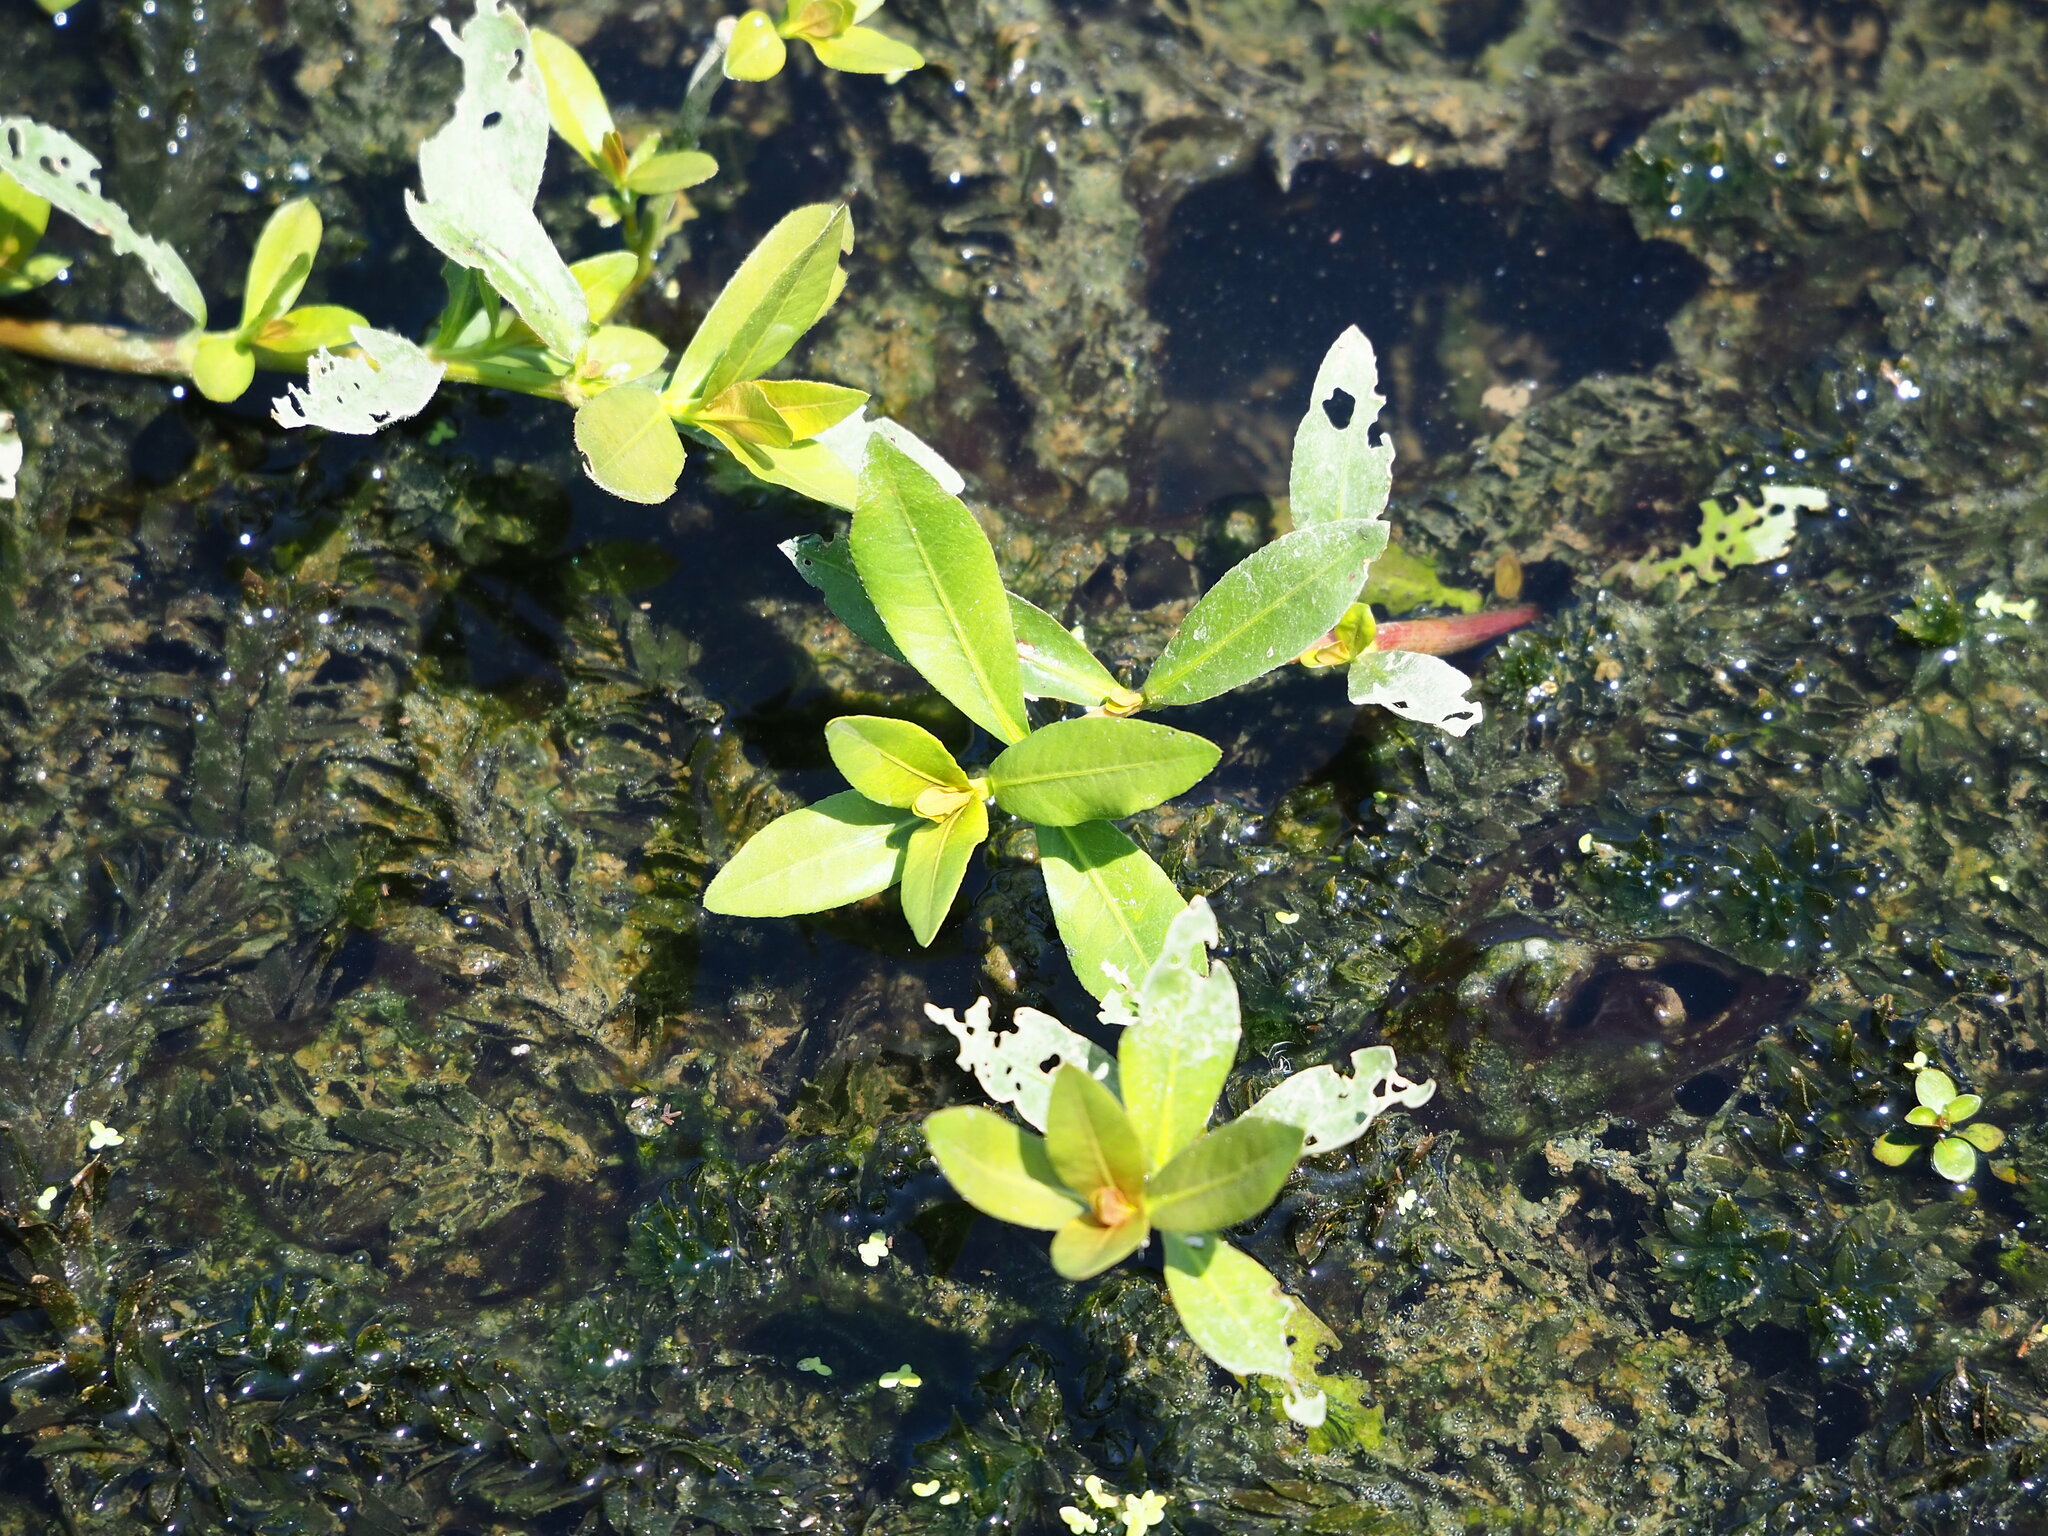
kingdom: Plantae
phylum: Tracheophyta
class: Magnoliopsida
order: Caryophyllales
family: Amaranthaceae
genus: Alternanthera
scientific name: Alternanthera philoxeroides
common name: Alligatorweed
